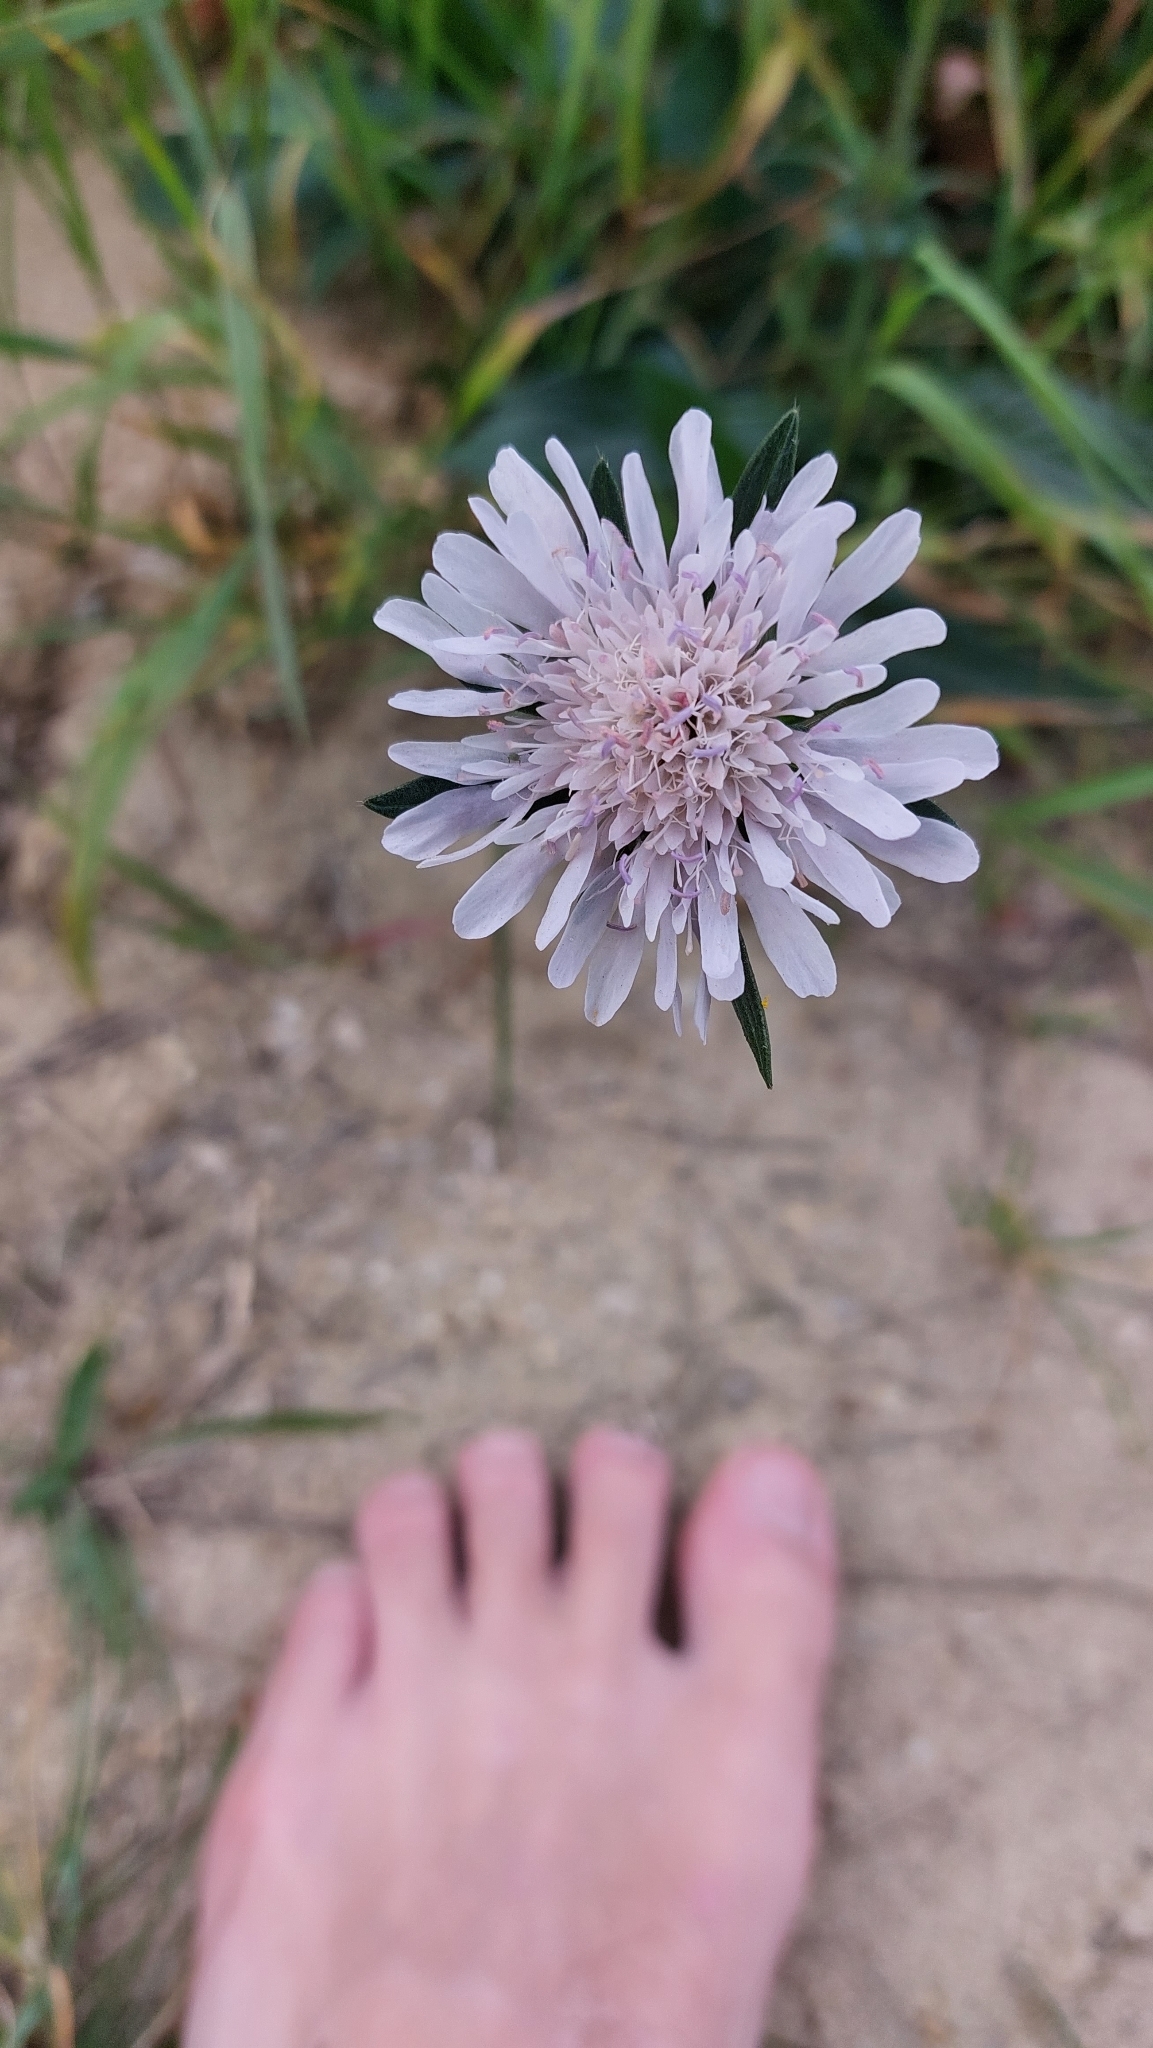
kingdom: Plantae
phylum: Tracheophyta
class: Magnoliopsida
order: Dipsacales
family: Caprifoliaceae
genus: Knautia
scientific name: Knautia arvensis
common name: Field scabiosa
